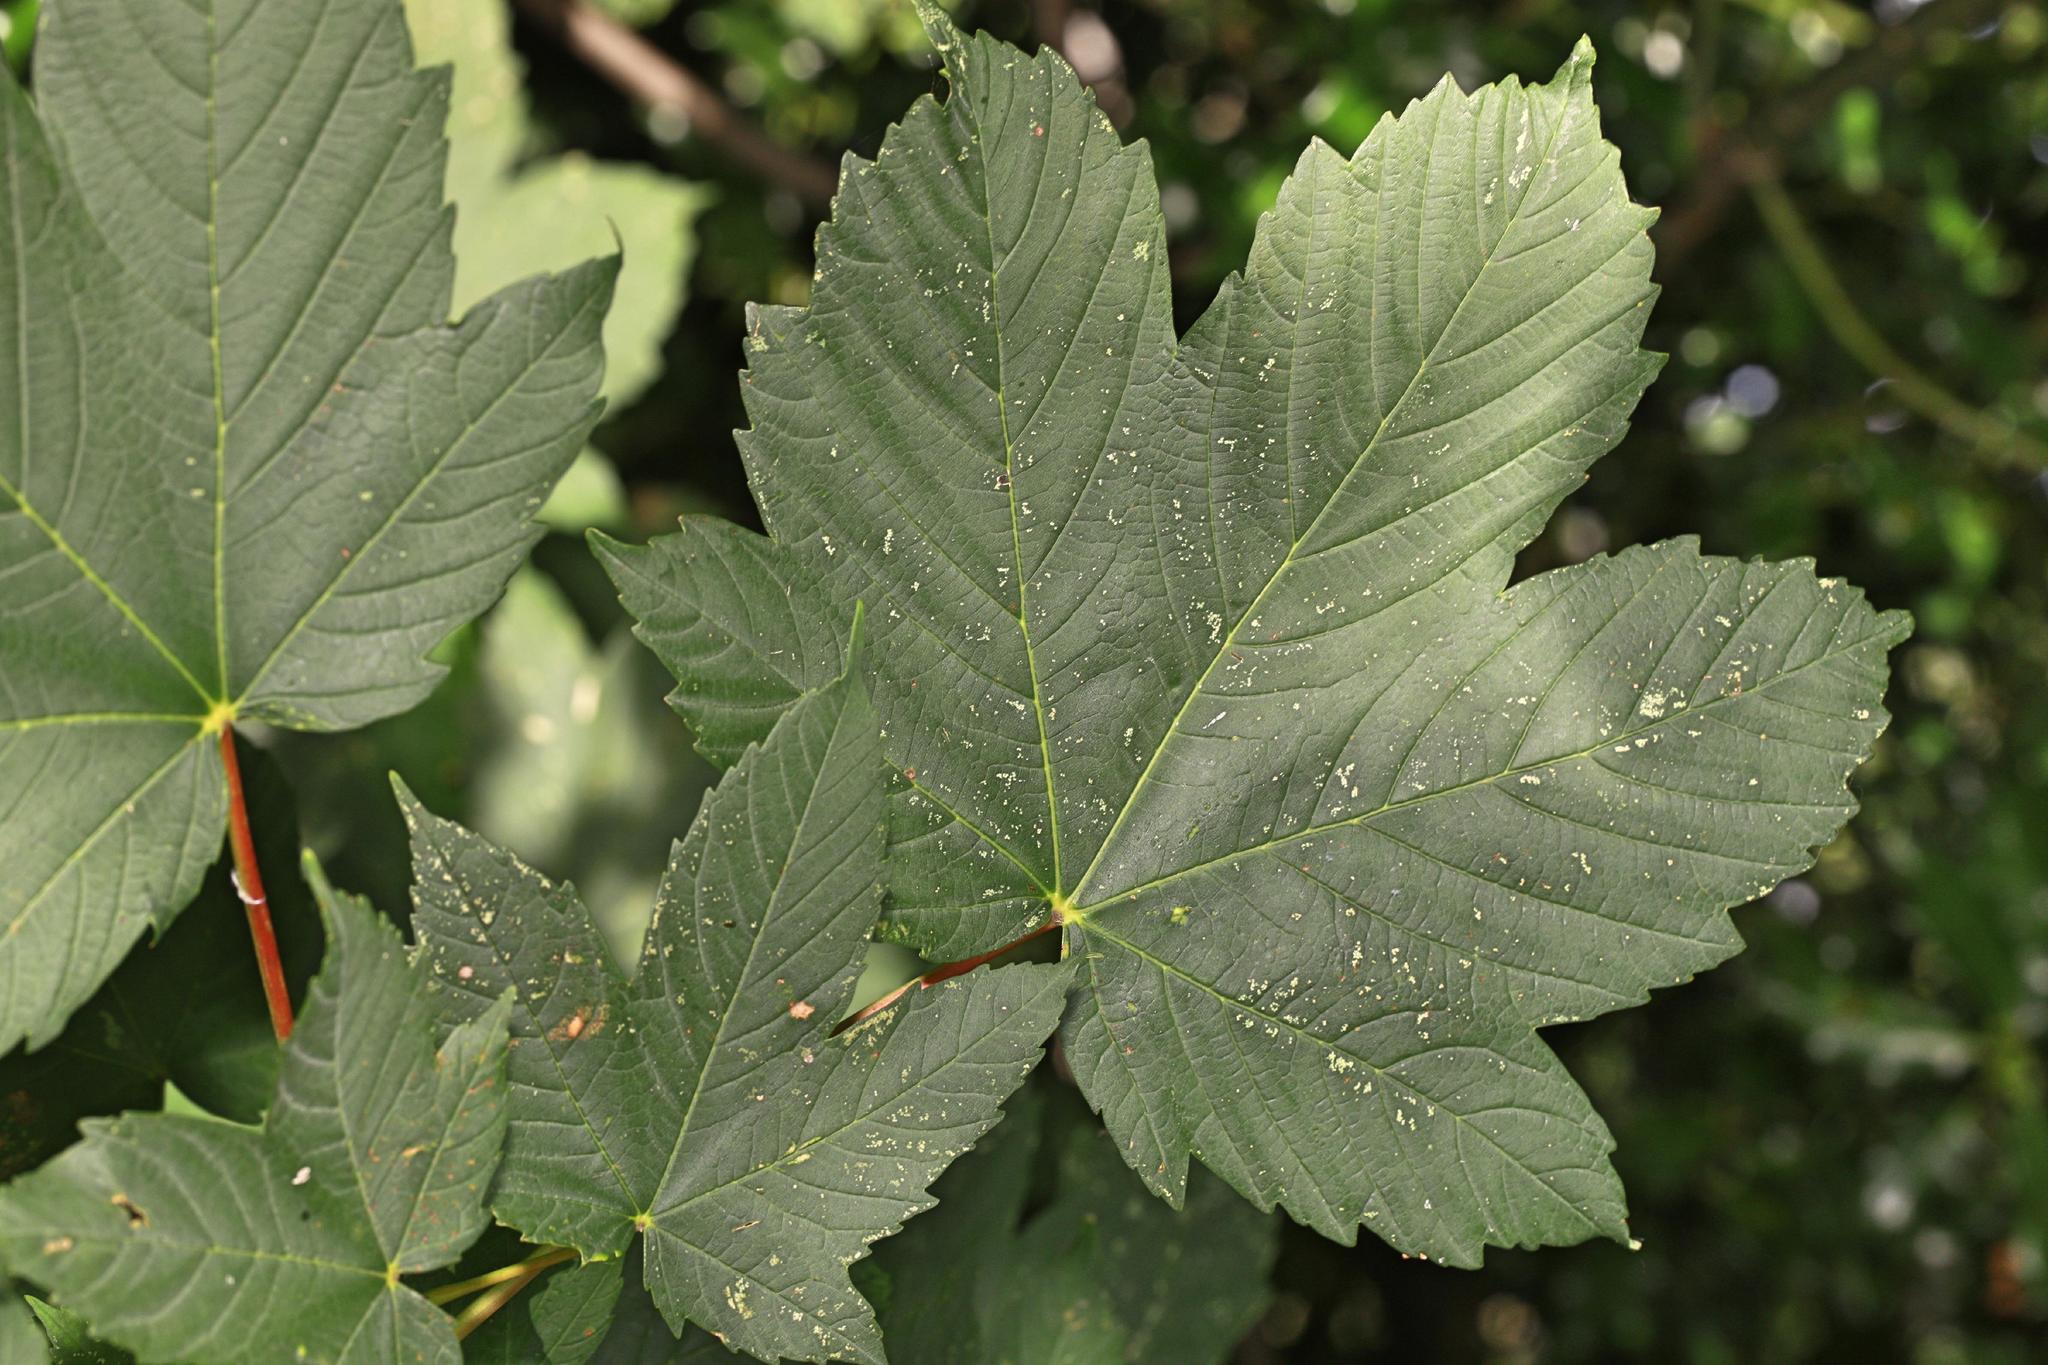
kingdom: Plantae
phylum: Tracheophyta
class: Magnoliopsida
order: Sapindales
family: Sapindaceae
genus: Acer
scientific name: Acer pseudoplatanus
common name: Sycamore
